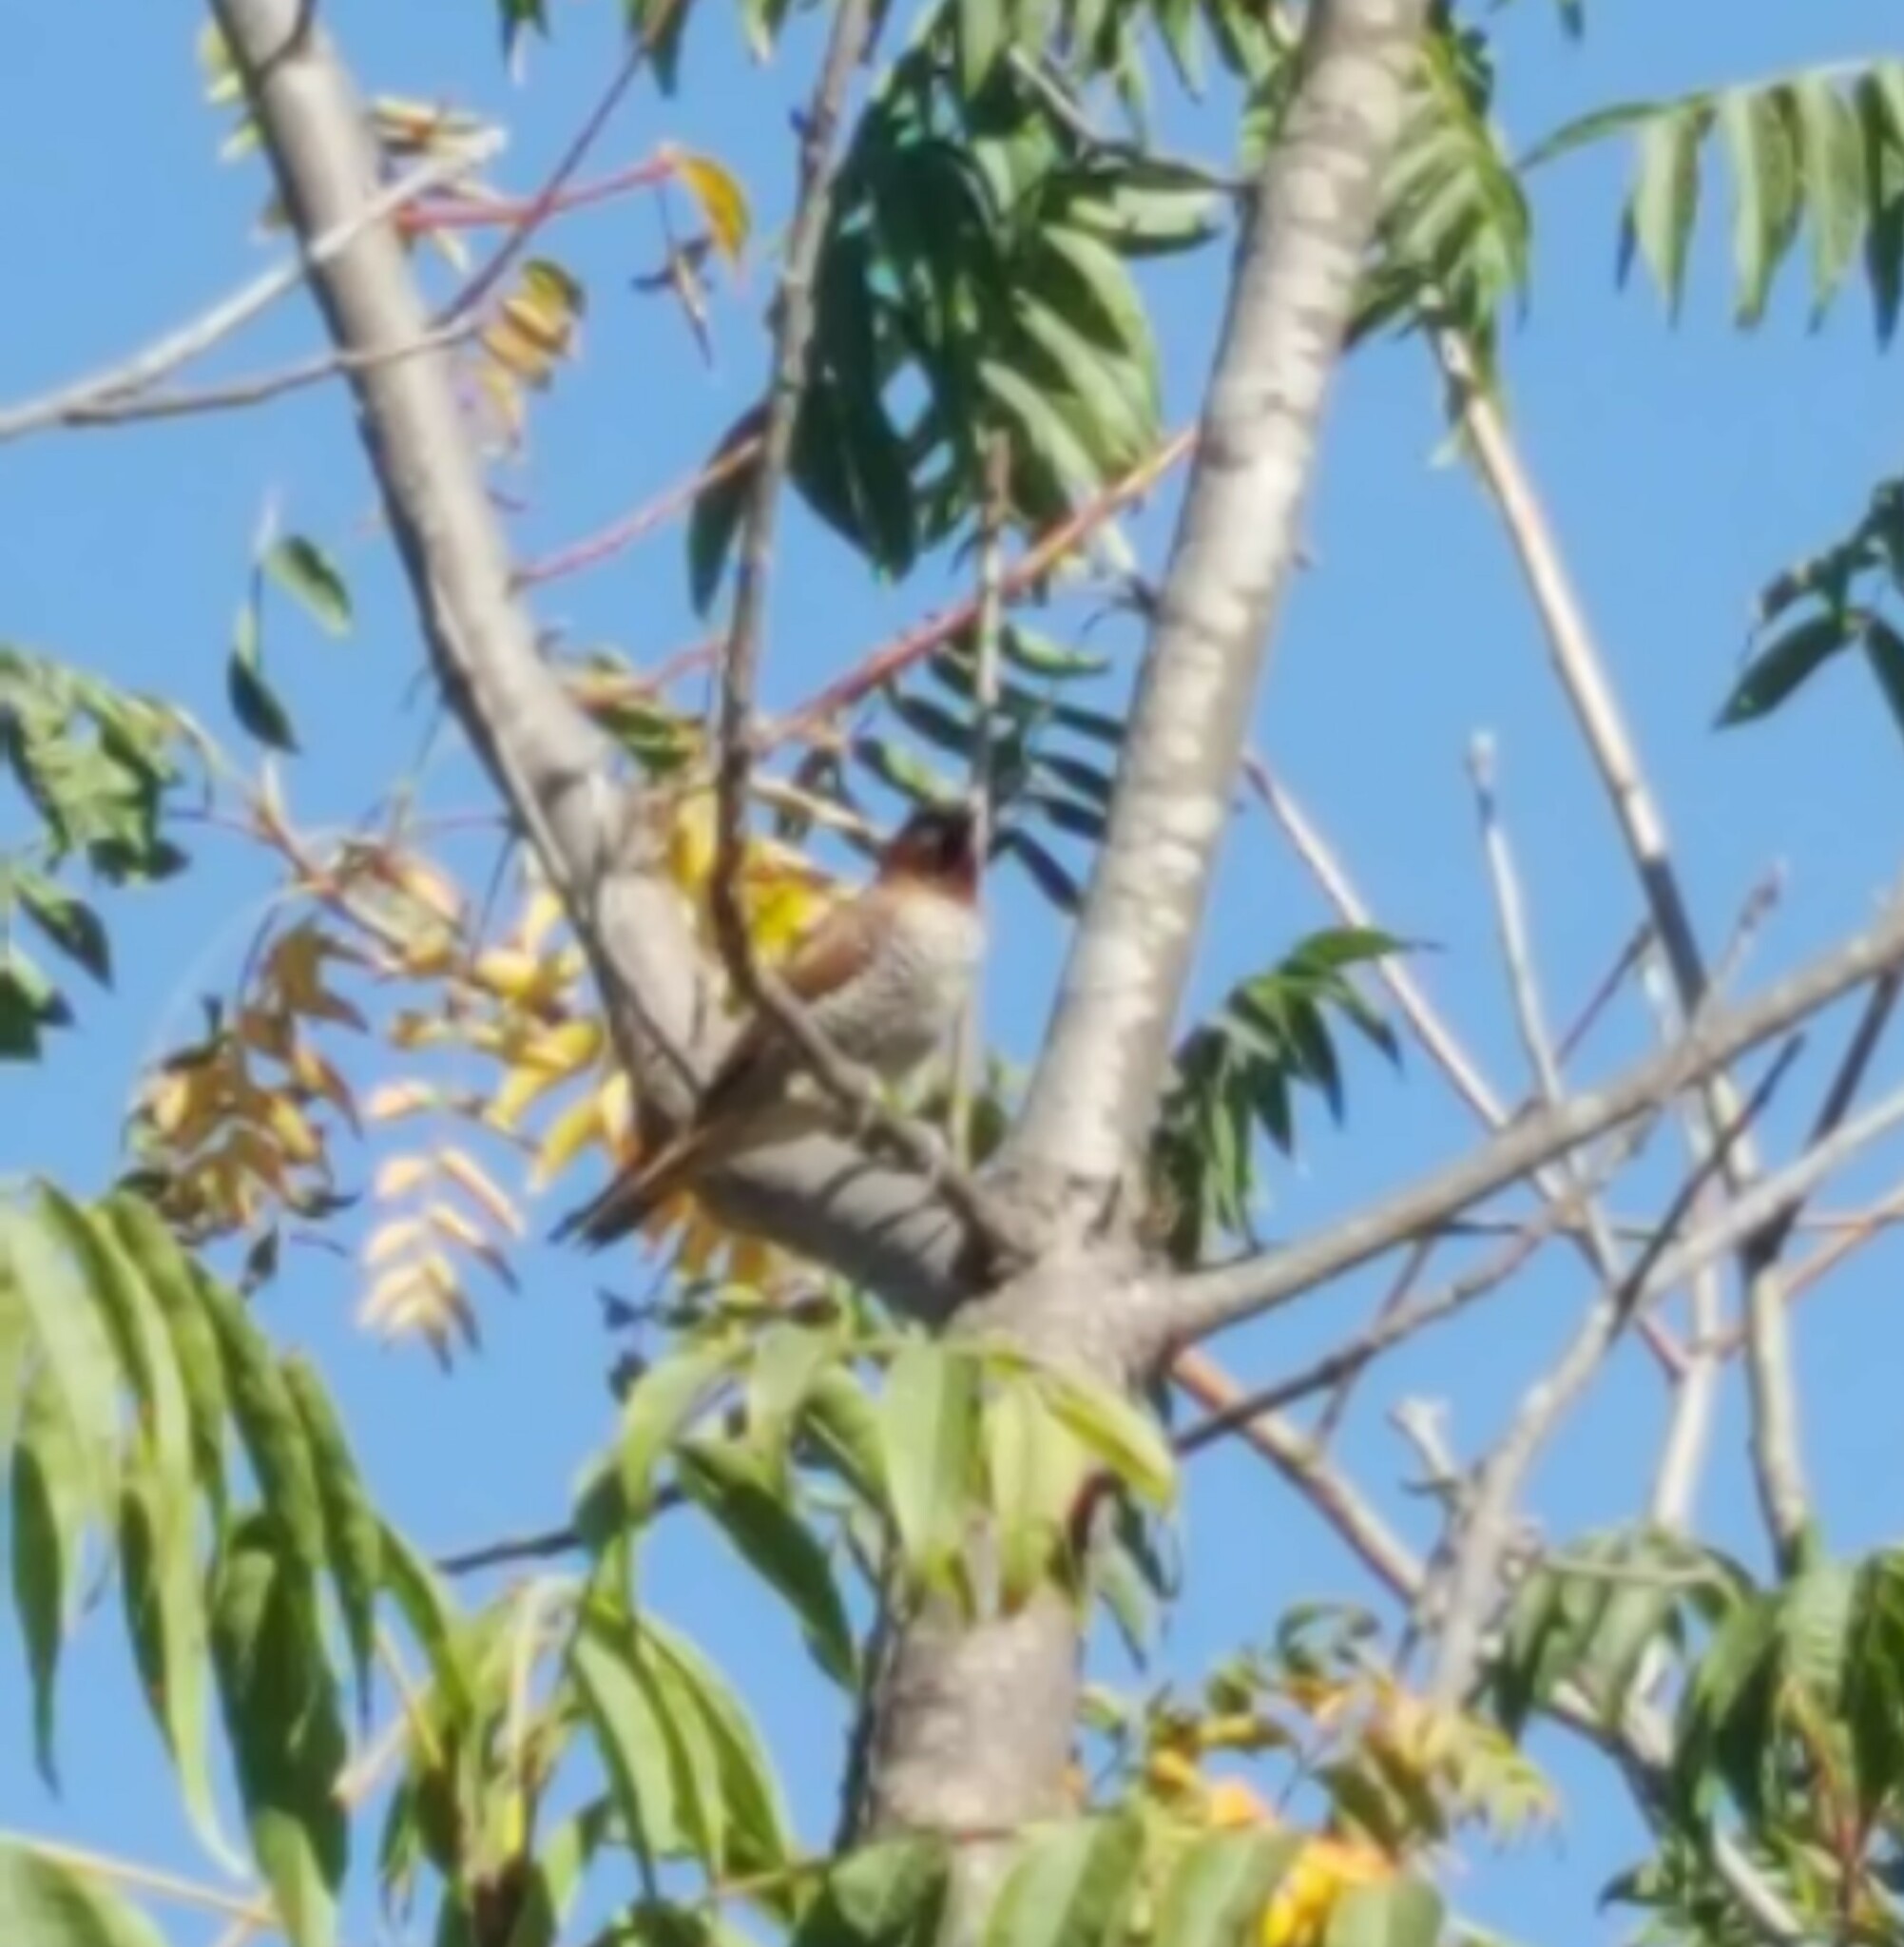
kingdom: Animalia
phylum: Chordata
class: Aves
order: Passeriformes
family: Estrildidae
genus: Lonchura
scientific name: Lonchura punctulata
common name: Scaly-breasted munia
